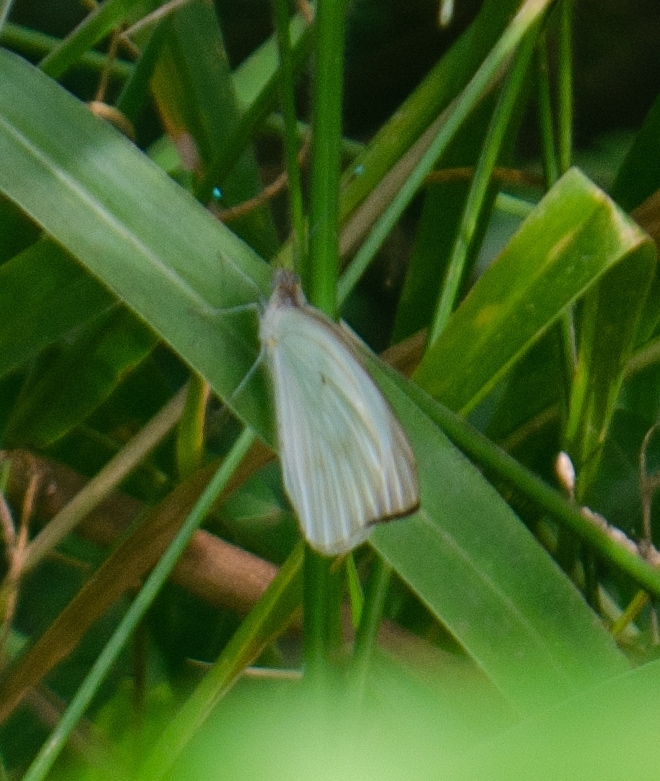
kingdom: Animalia
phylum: Arthropoda
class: Insecta
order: Lepidoptera
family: Pieridae
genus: Ascia
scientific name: Ascia monuste
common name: Great southern white
